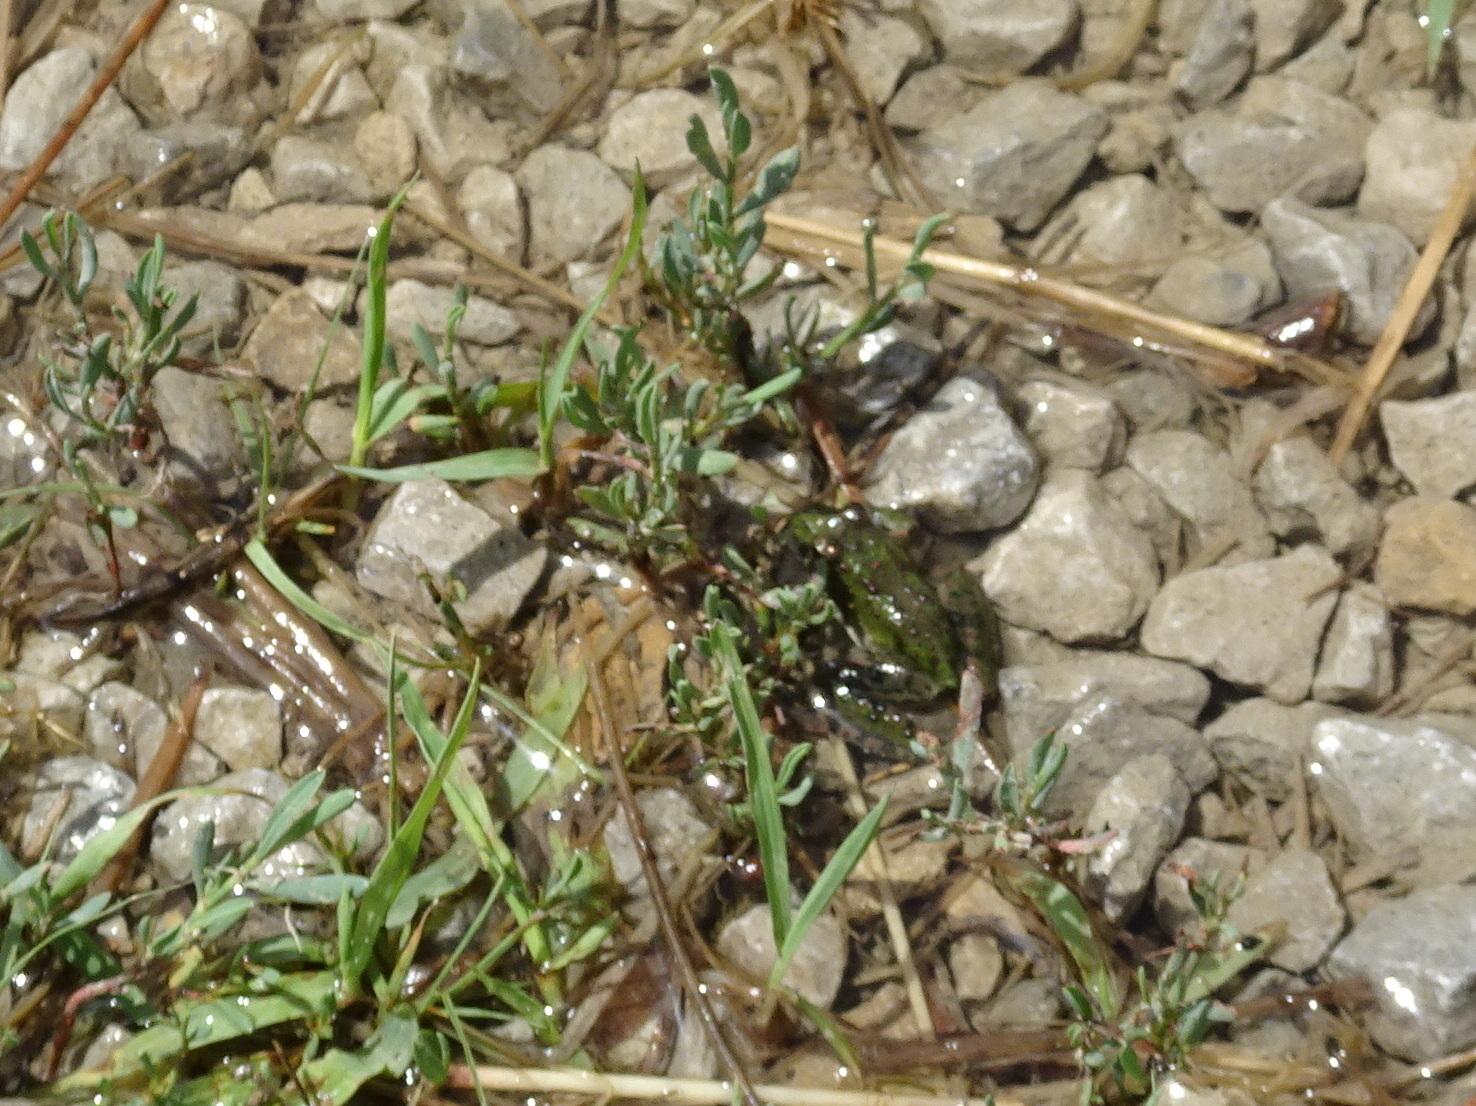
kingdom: Animalia
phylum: Chordata
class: Amphibia
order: Anura
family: Hylidae
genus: Acris
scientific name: Acris blanchardi
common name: Blanchard's cricket frog
